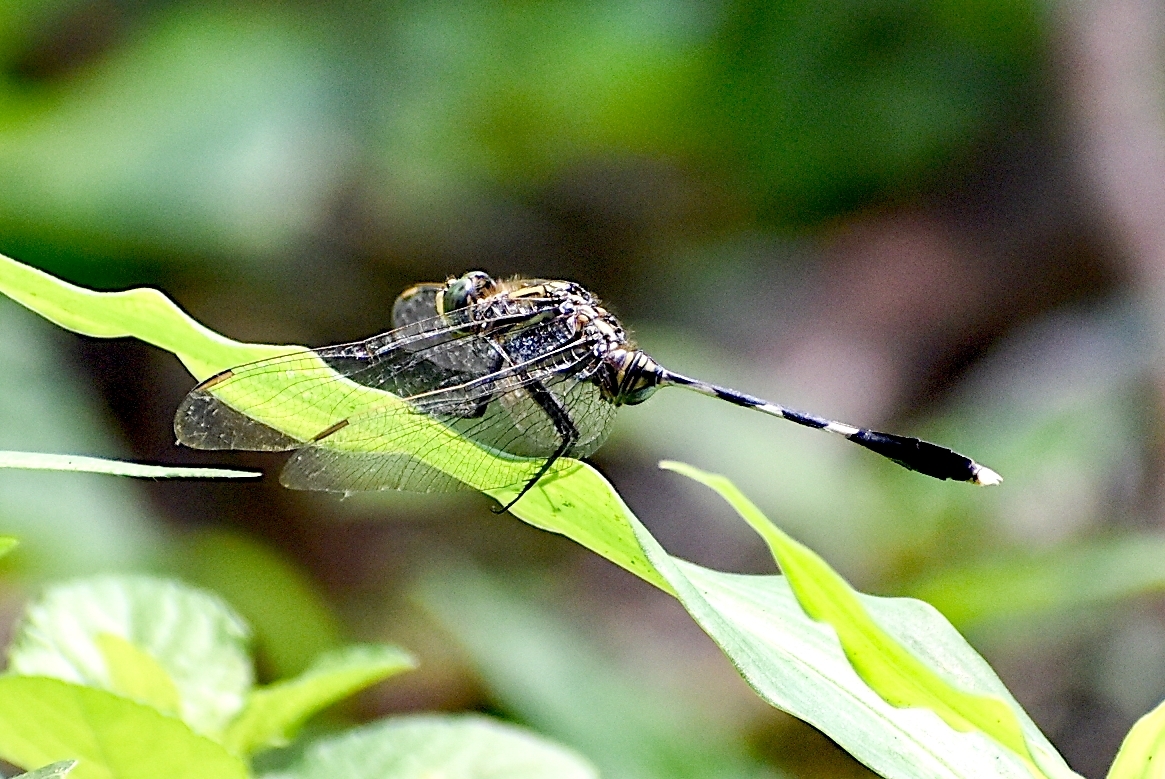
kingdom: Animalia
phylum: Arthropoda
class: Insecta
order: Odonata
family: Libellulidae
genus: Orthetrum
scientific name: Orthetrum sabina
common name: Slender skimmer
